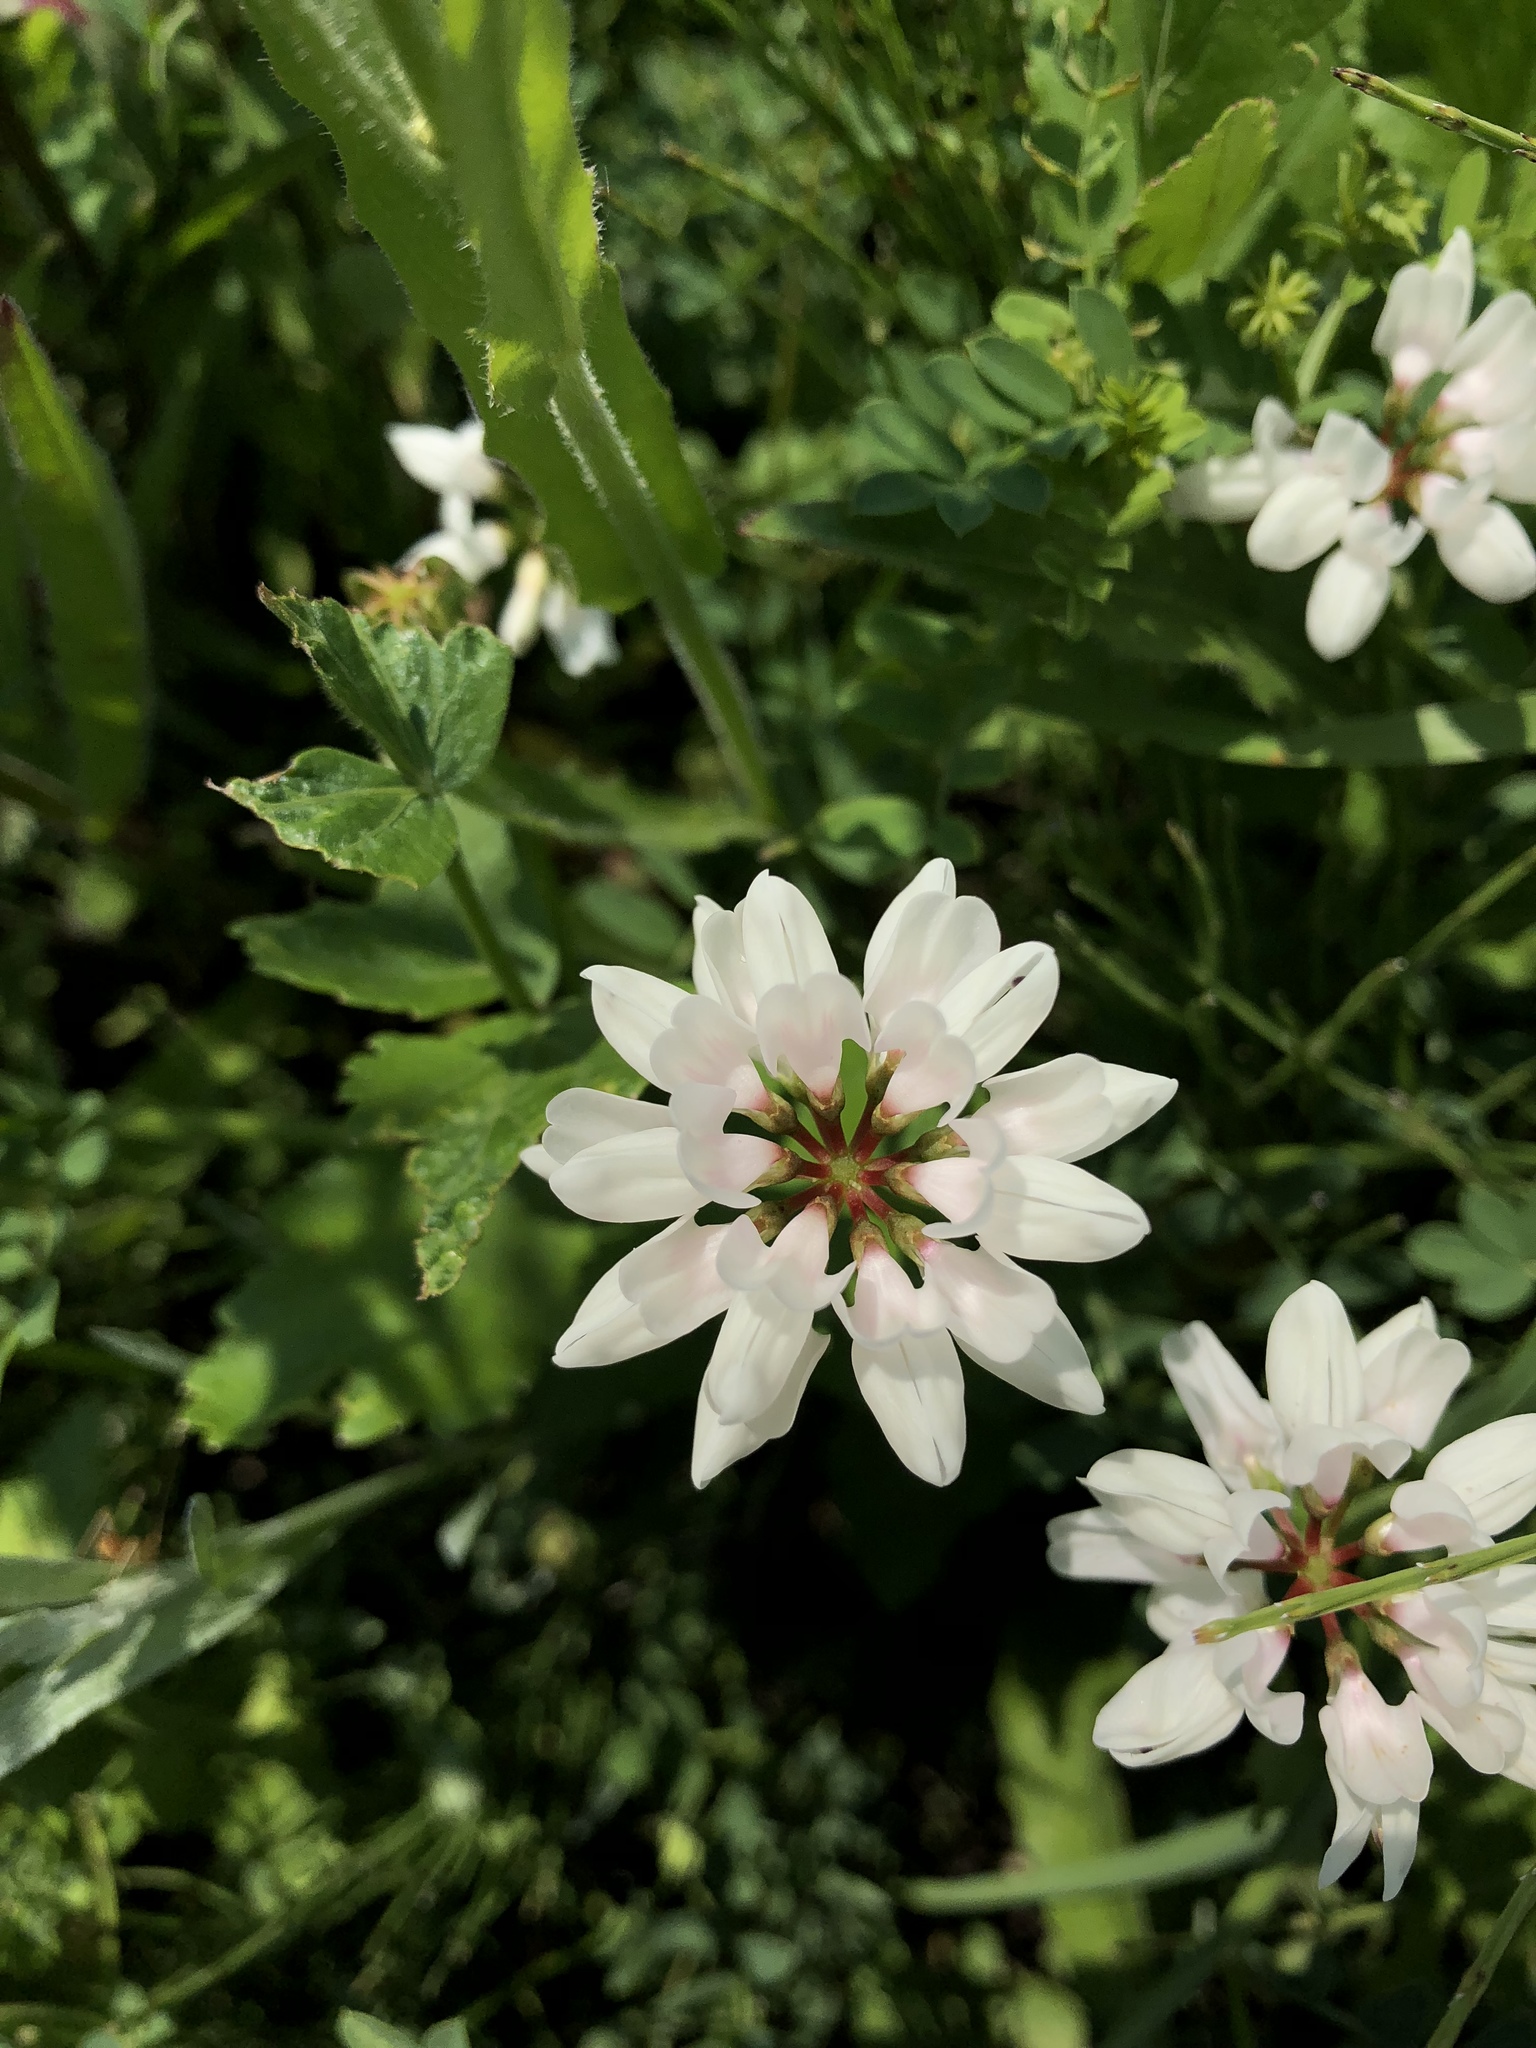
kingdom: Plantae
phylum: Tracheophyta
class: Magnoliopsida
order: Fabales
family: Fabaceae
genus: Coronilla
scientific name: Coronilla varia
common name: Crownvetch
